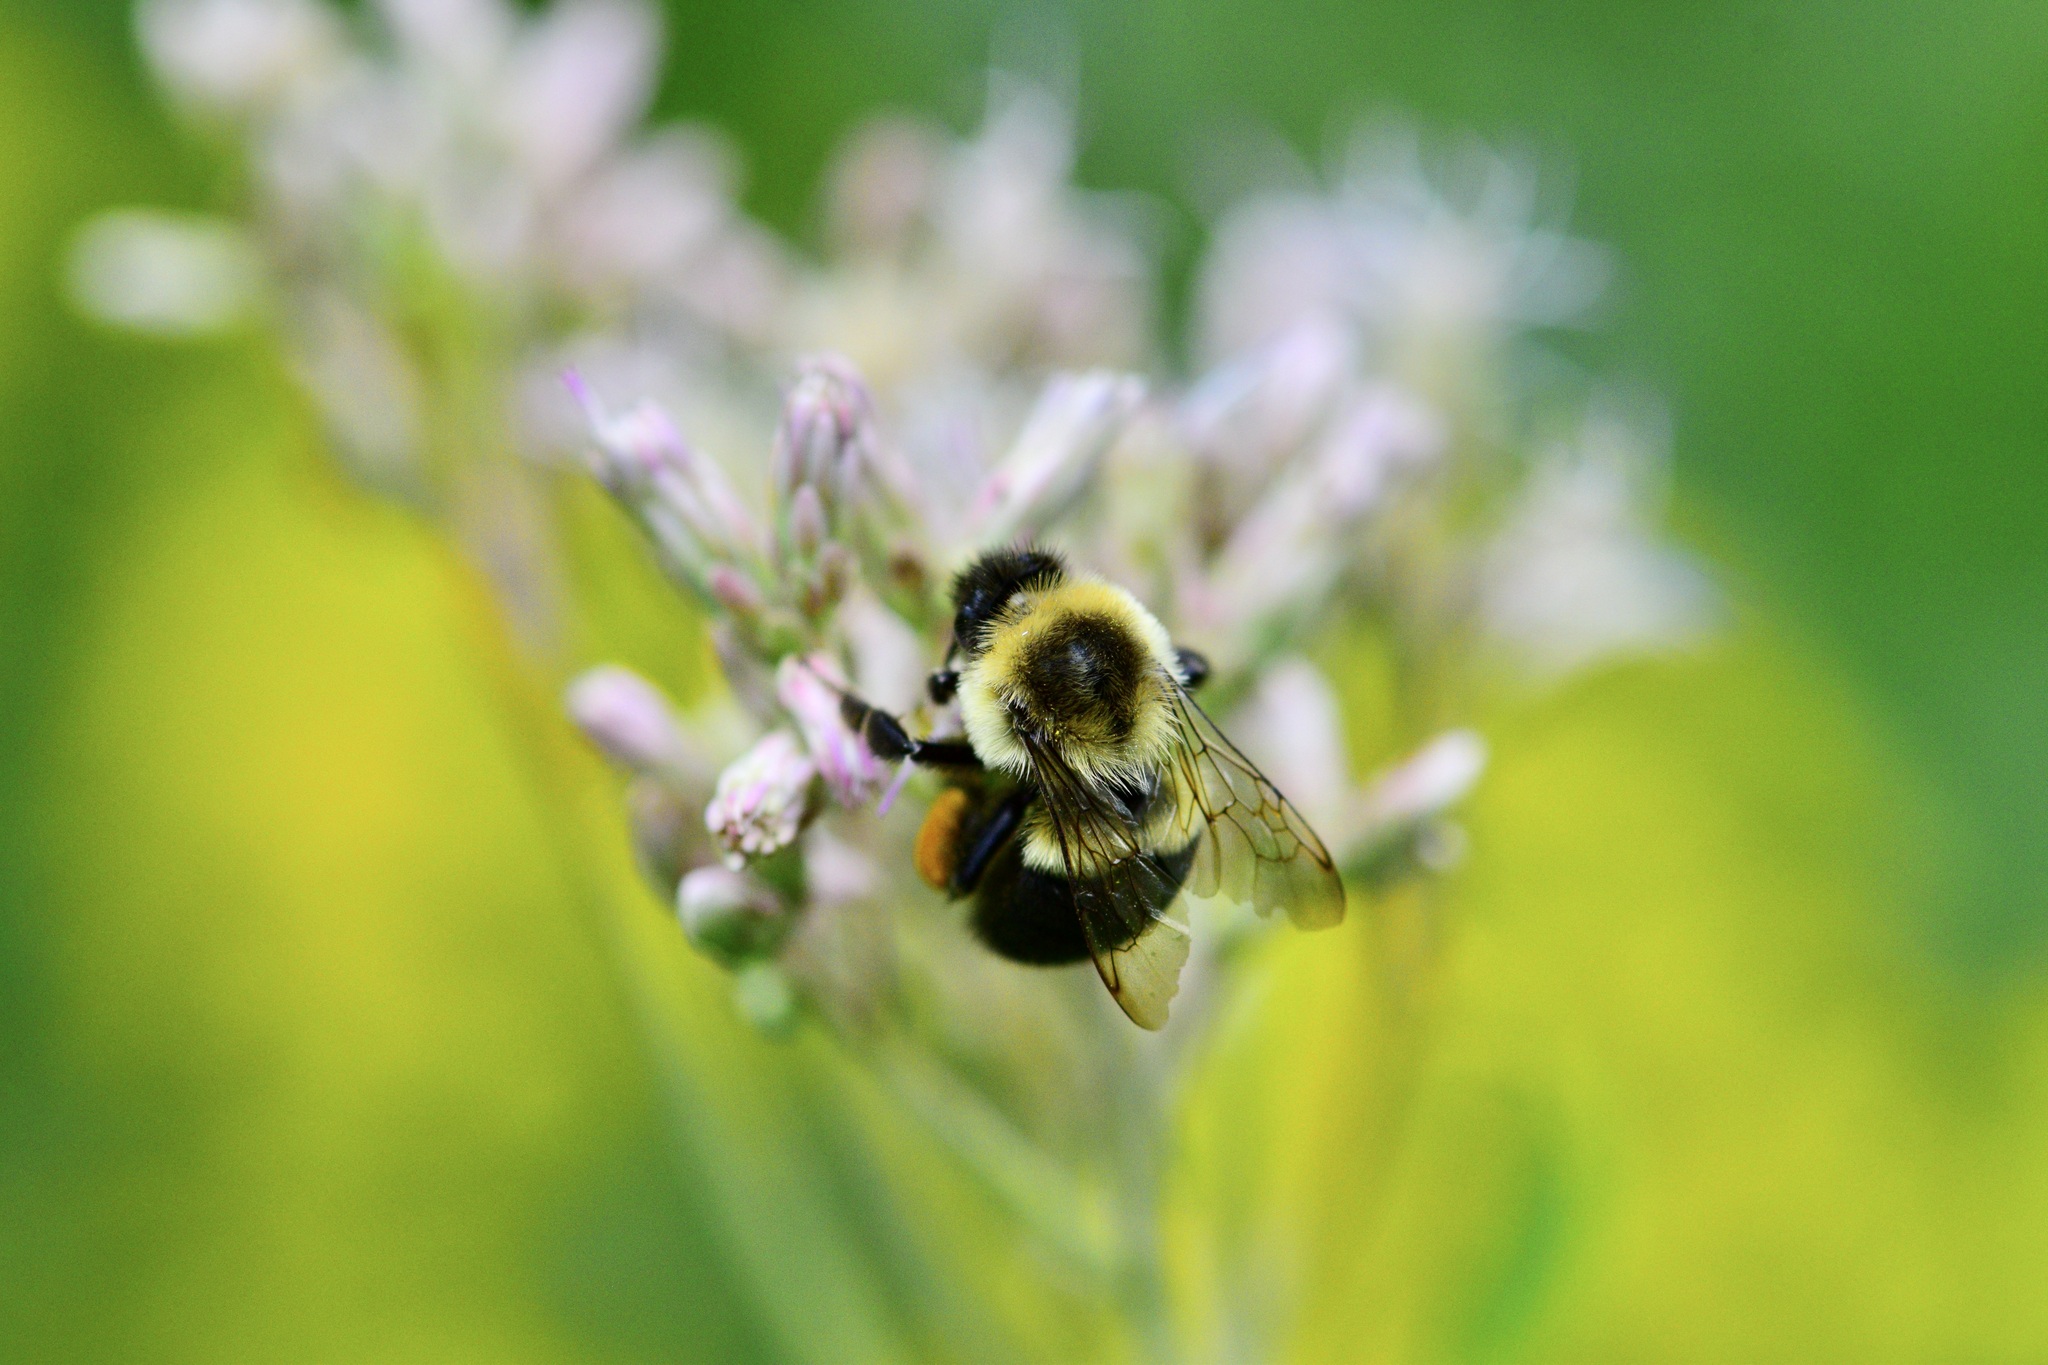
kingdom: Animalia
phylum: Arthropoda
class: Insecta
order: Hymenoptera
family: Apidae
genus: Bombus
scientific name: Bombus impatiens
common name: Common eastern bumble bee
